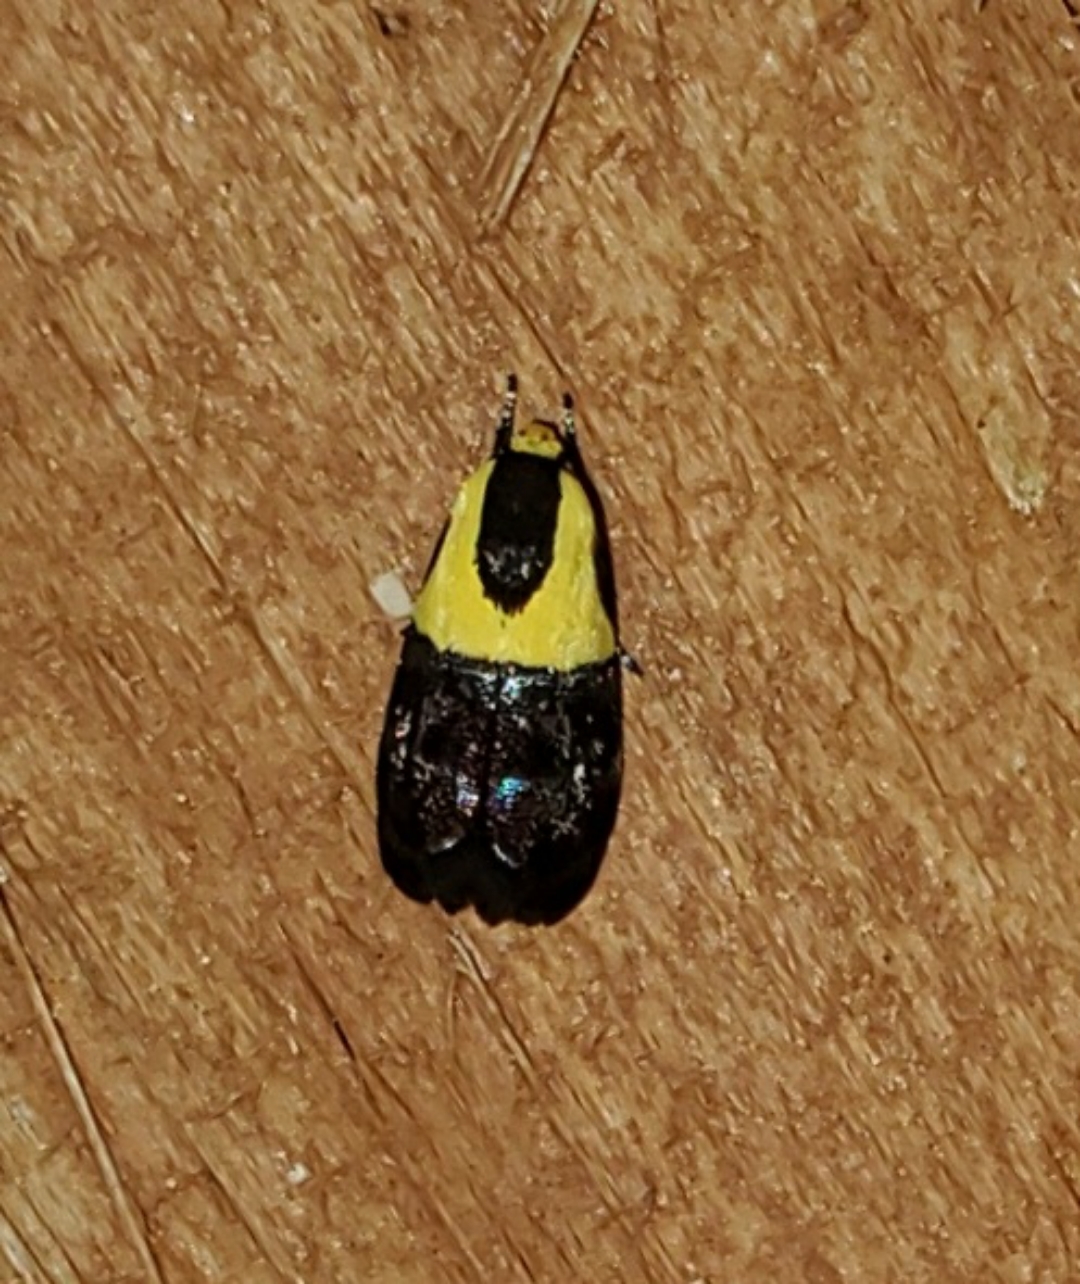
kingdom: Animalia
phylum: Arthropoda
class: Insecta
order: Lepidoptera
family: Depressariidae
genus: Rectiostoma
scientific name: Rectiostoma xanthobasis
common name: Yellow-vested moth
